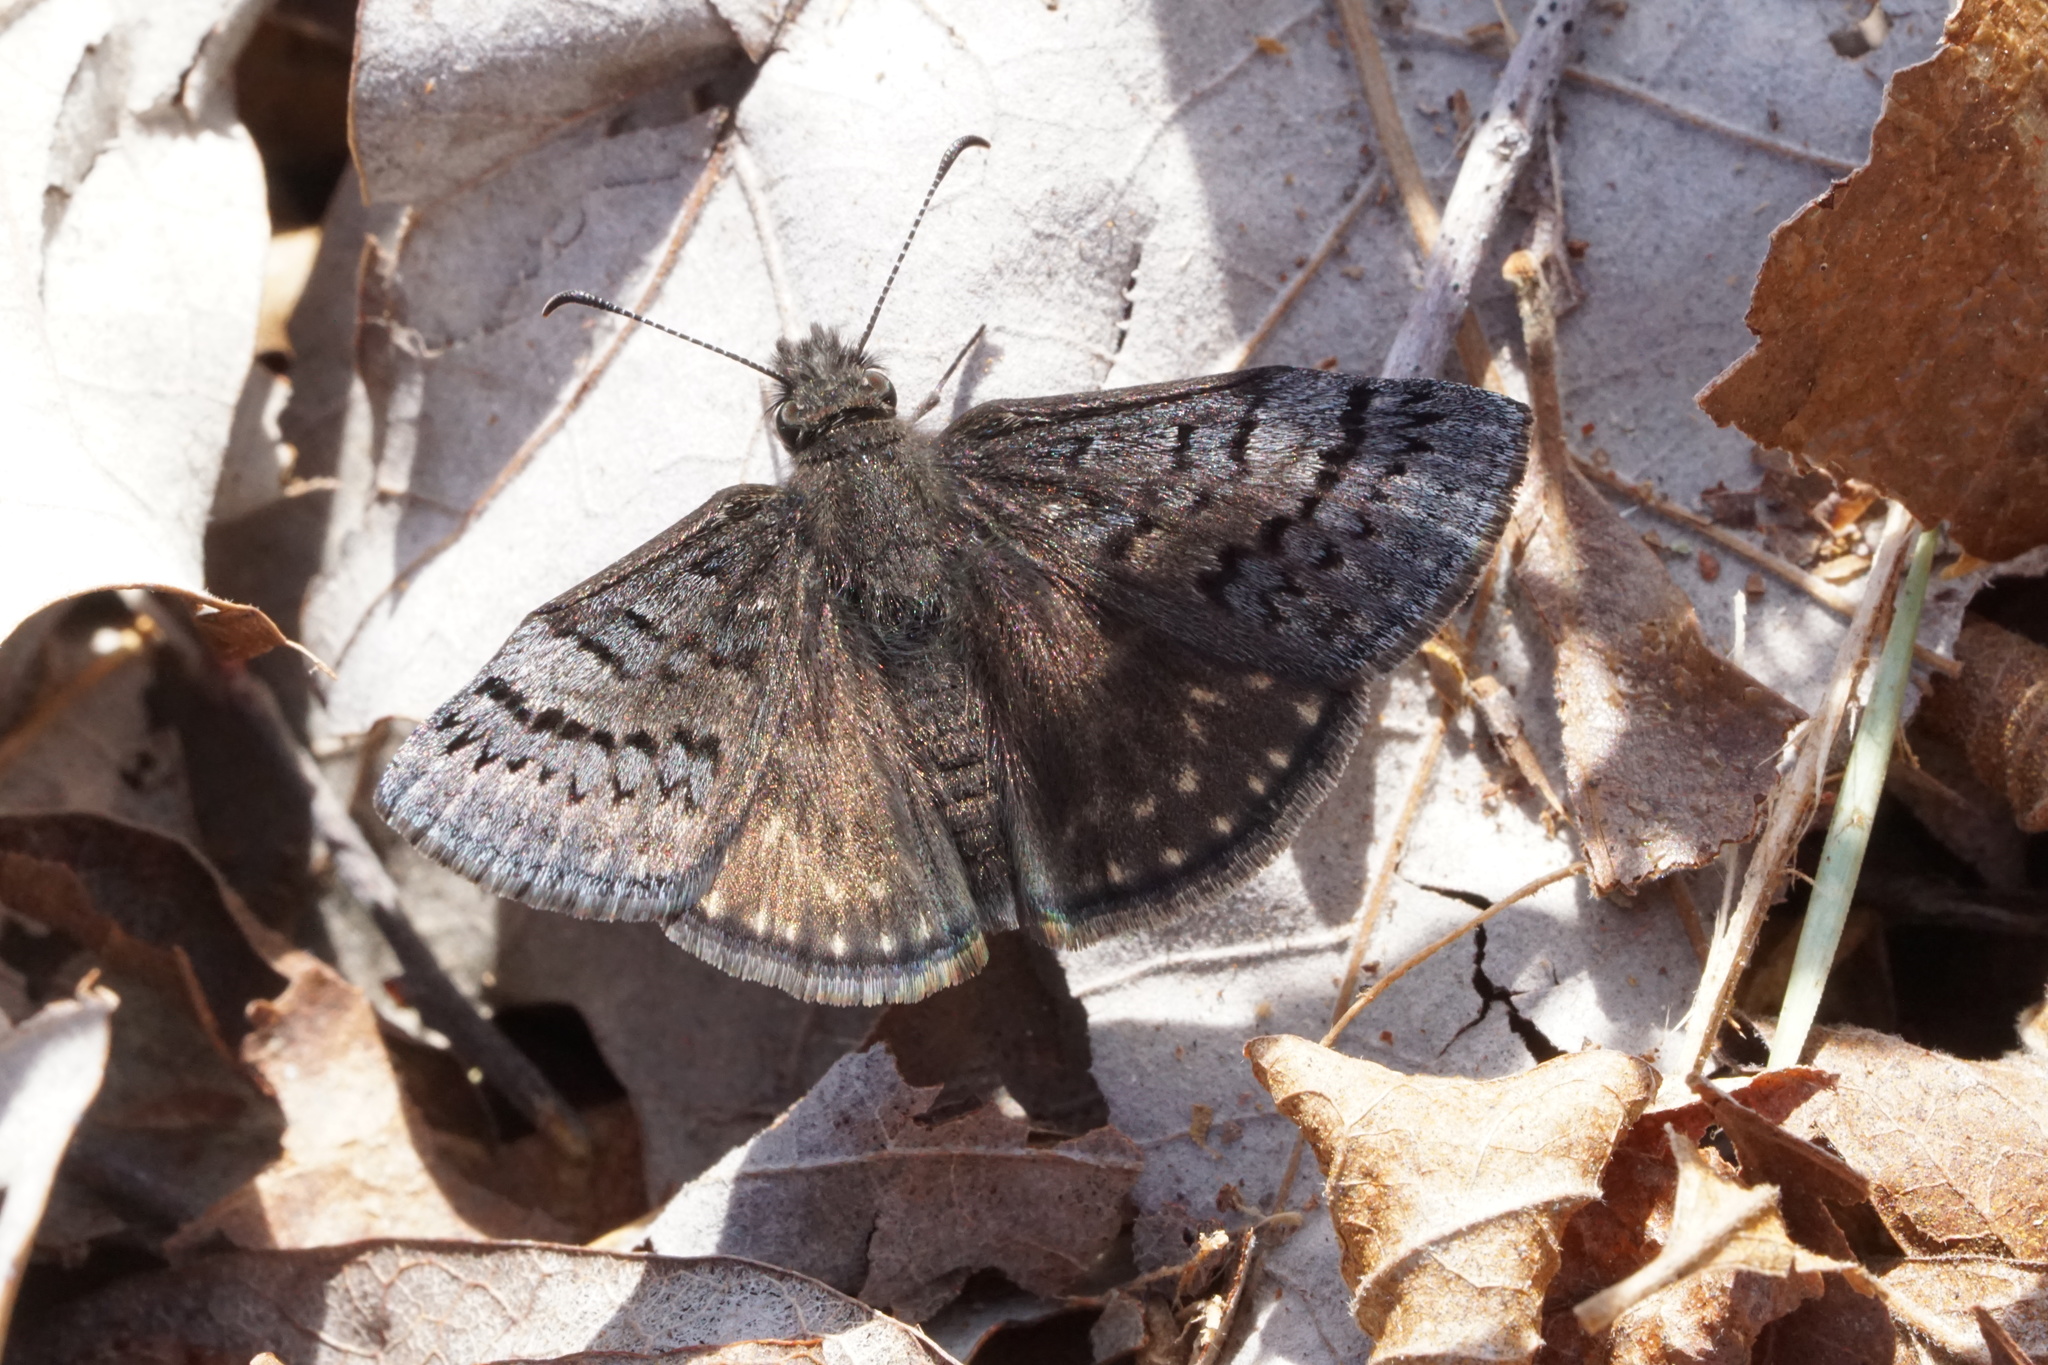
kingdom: Animalia
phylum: Arthropoda
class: Insecta
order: Lepidoptera
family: Hesperiidae
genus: Erynnis
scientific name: Erynnis brizo
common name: Sleepy duskywing
